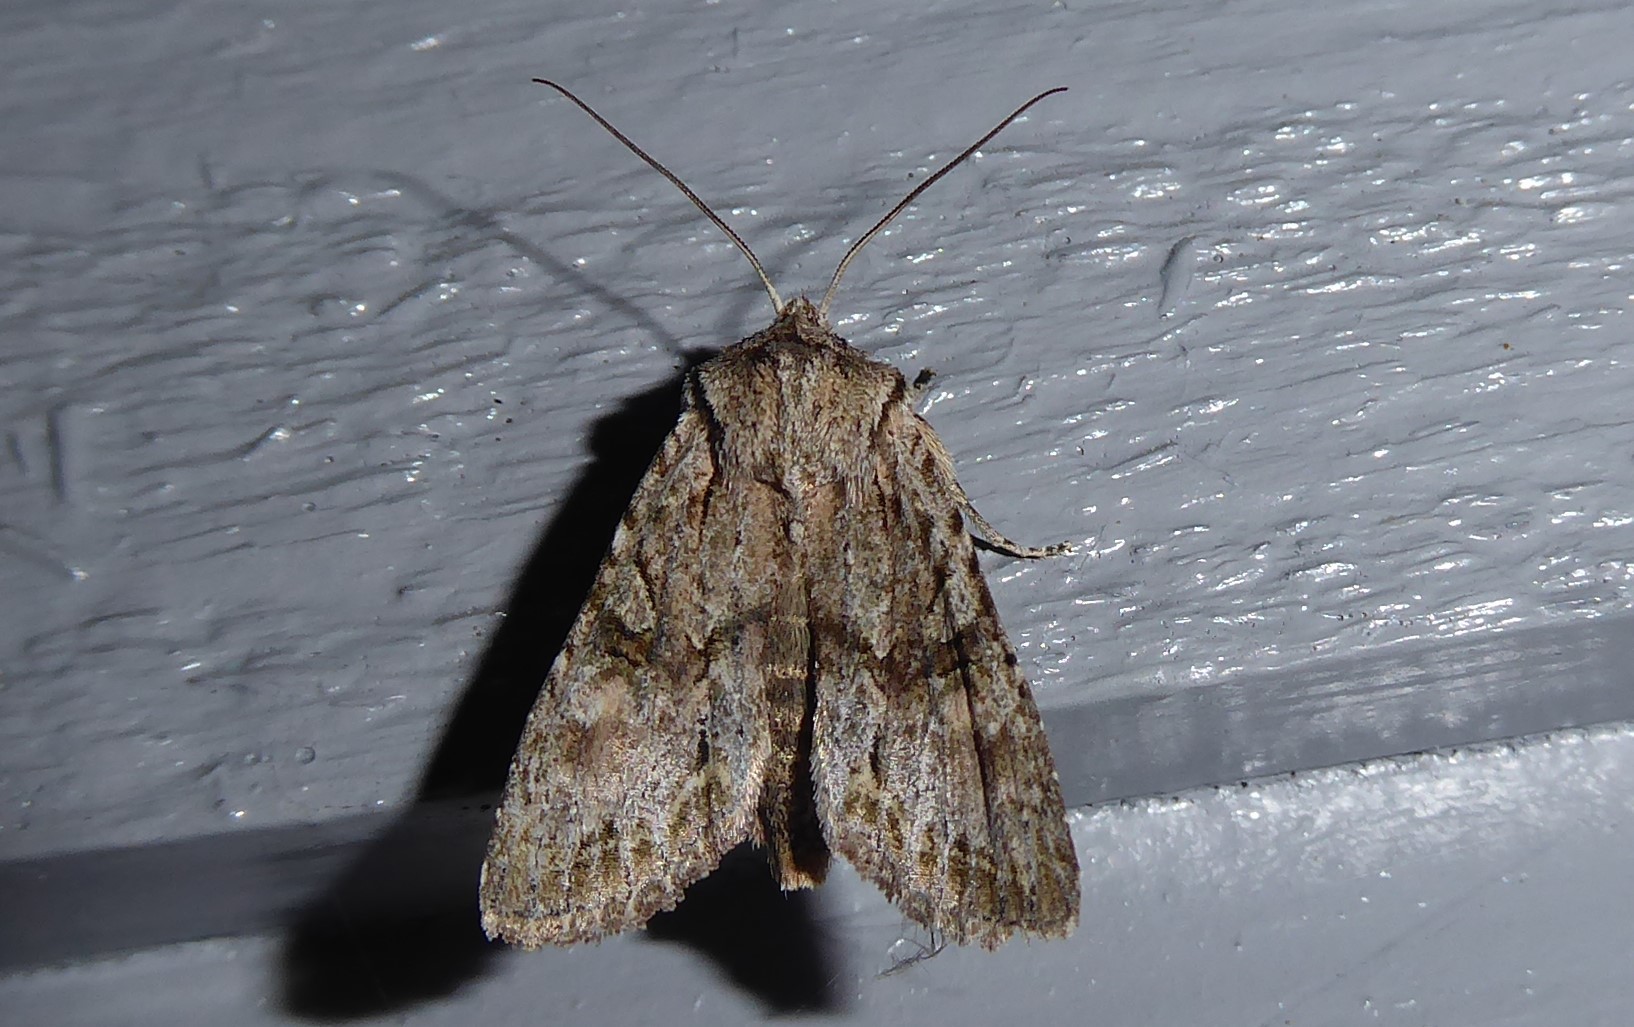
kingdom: Animalia
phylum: Arthropoda
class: Insecta
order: Lepidoptera
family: Noctuidae
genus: Ichneutica
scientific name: Ichneutica mutans
